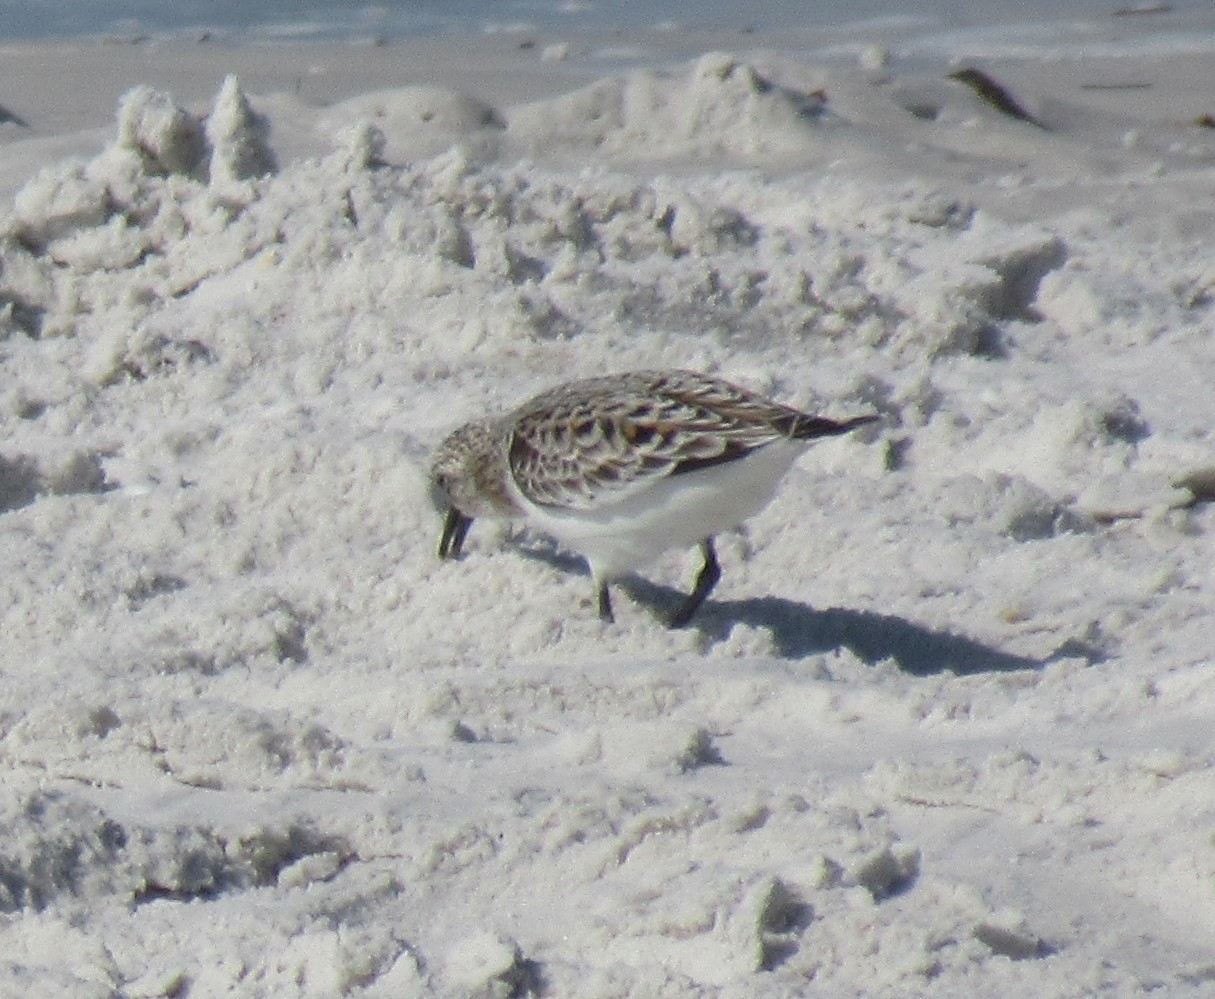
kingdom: Animalia
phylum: Chordata
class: Aves
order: Charadriiformes
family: Scolopacidae
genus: Calidris
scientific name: Calidris alba
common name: Sanderling
